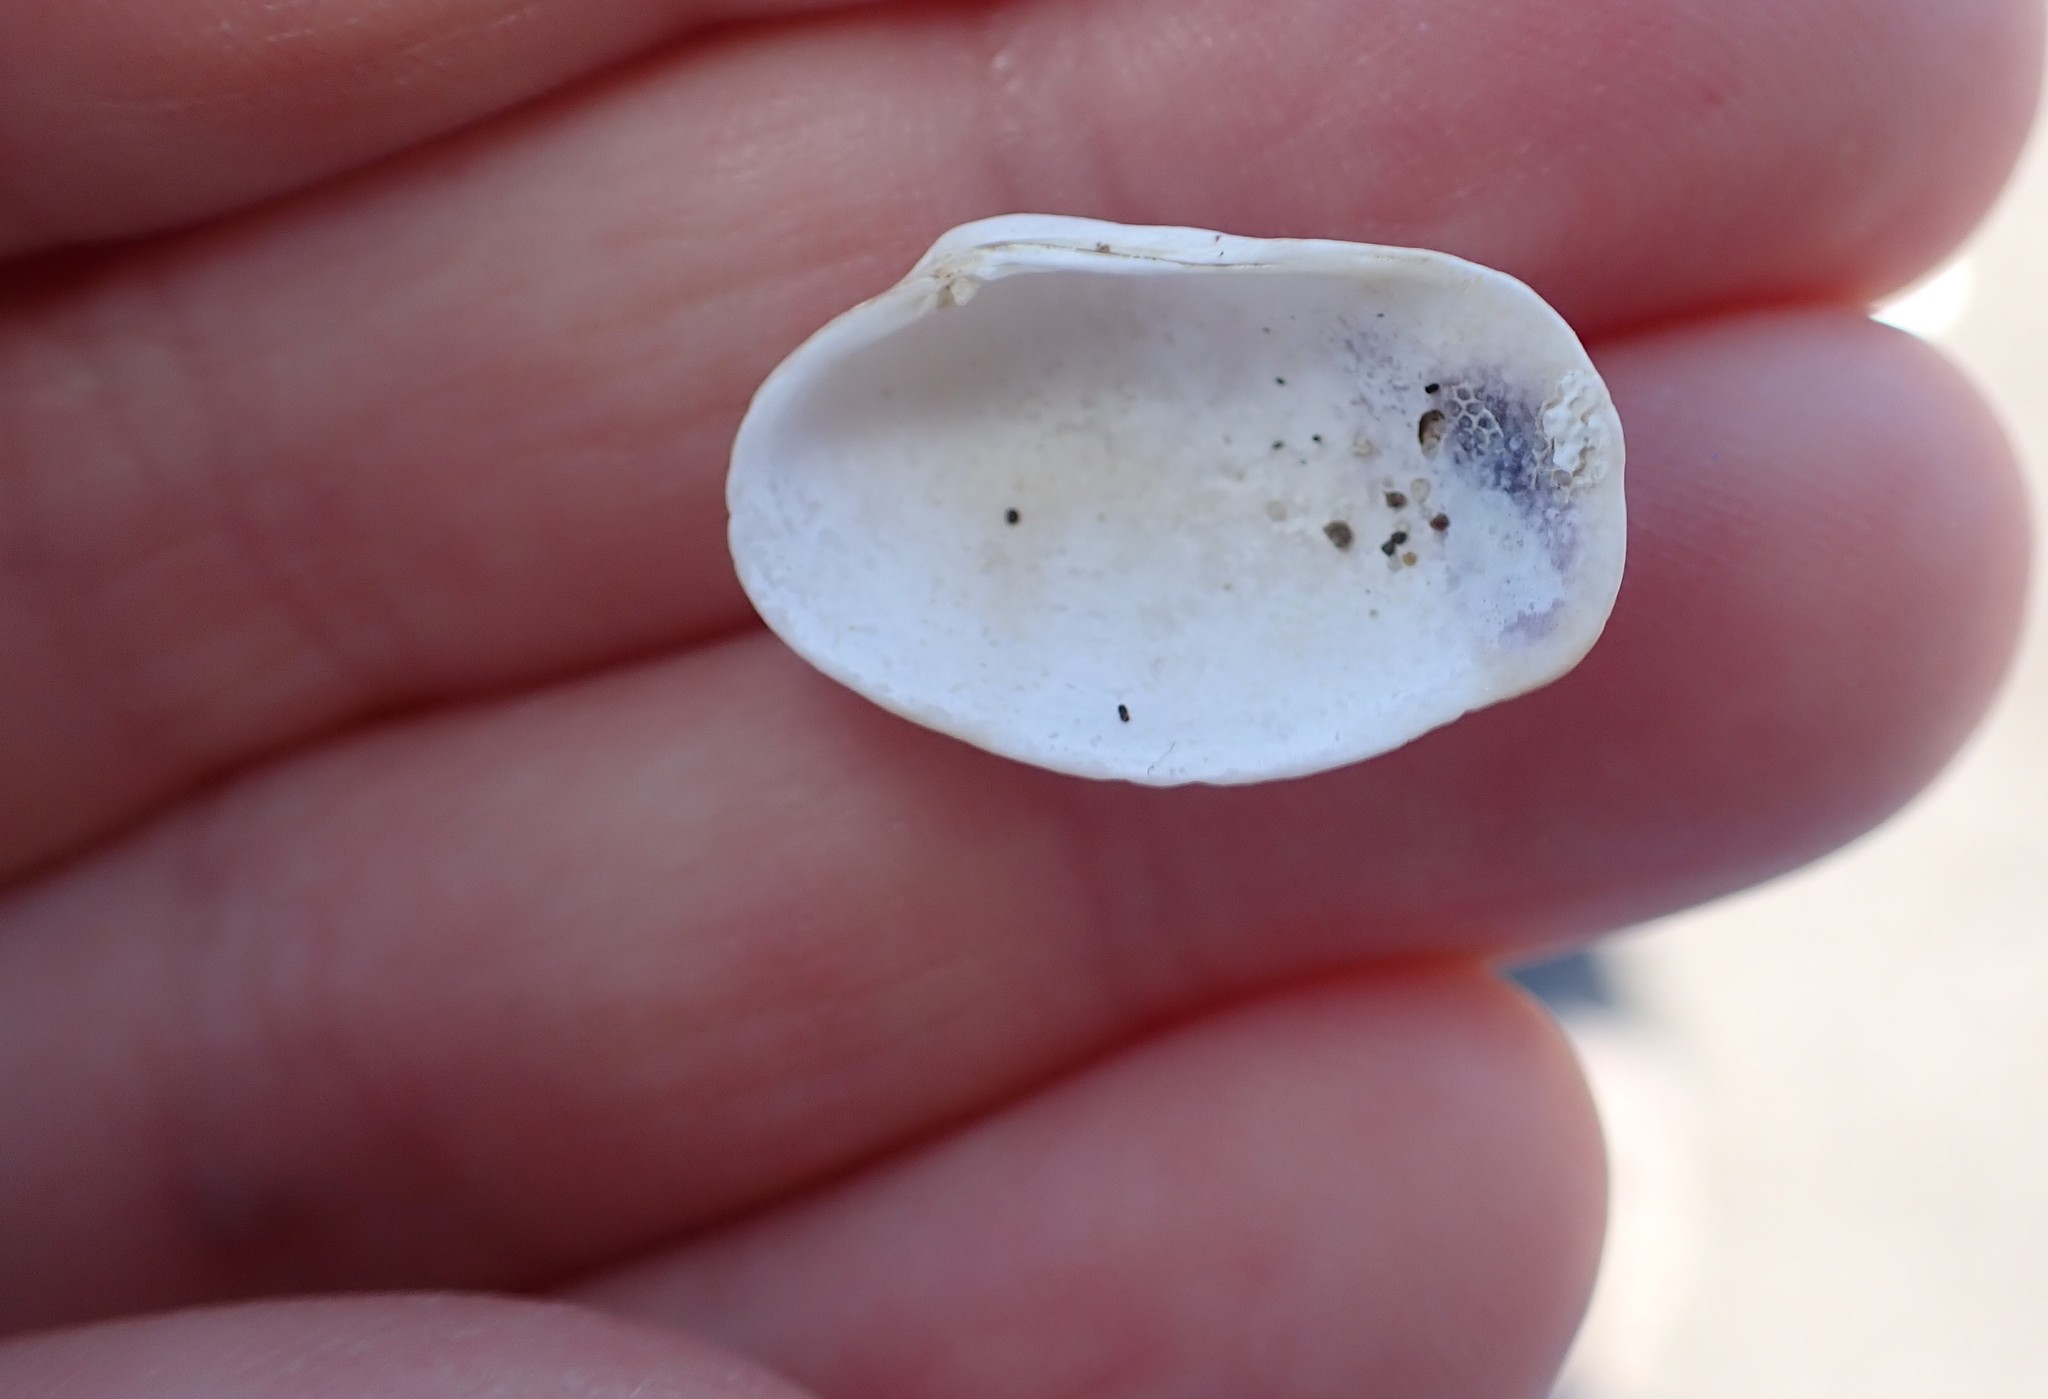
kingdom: Animalia
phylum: Mollusca
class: Bivalvia
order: Venerida
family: Veneridae
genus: Irus
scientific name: Irus reflexus
